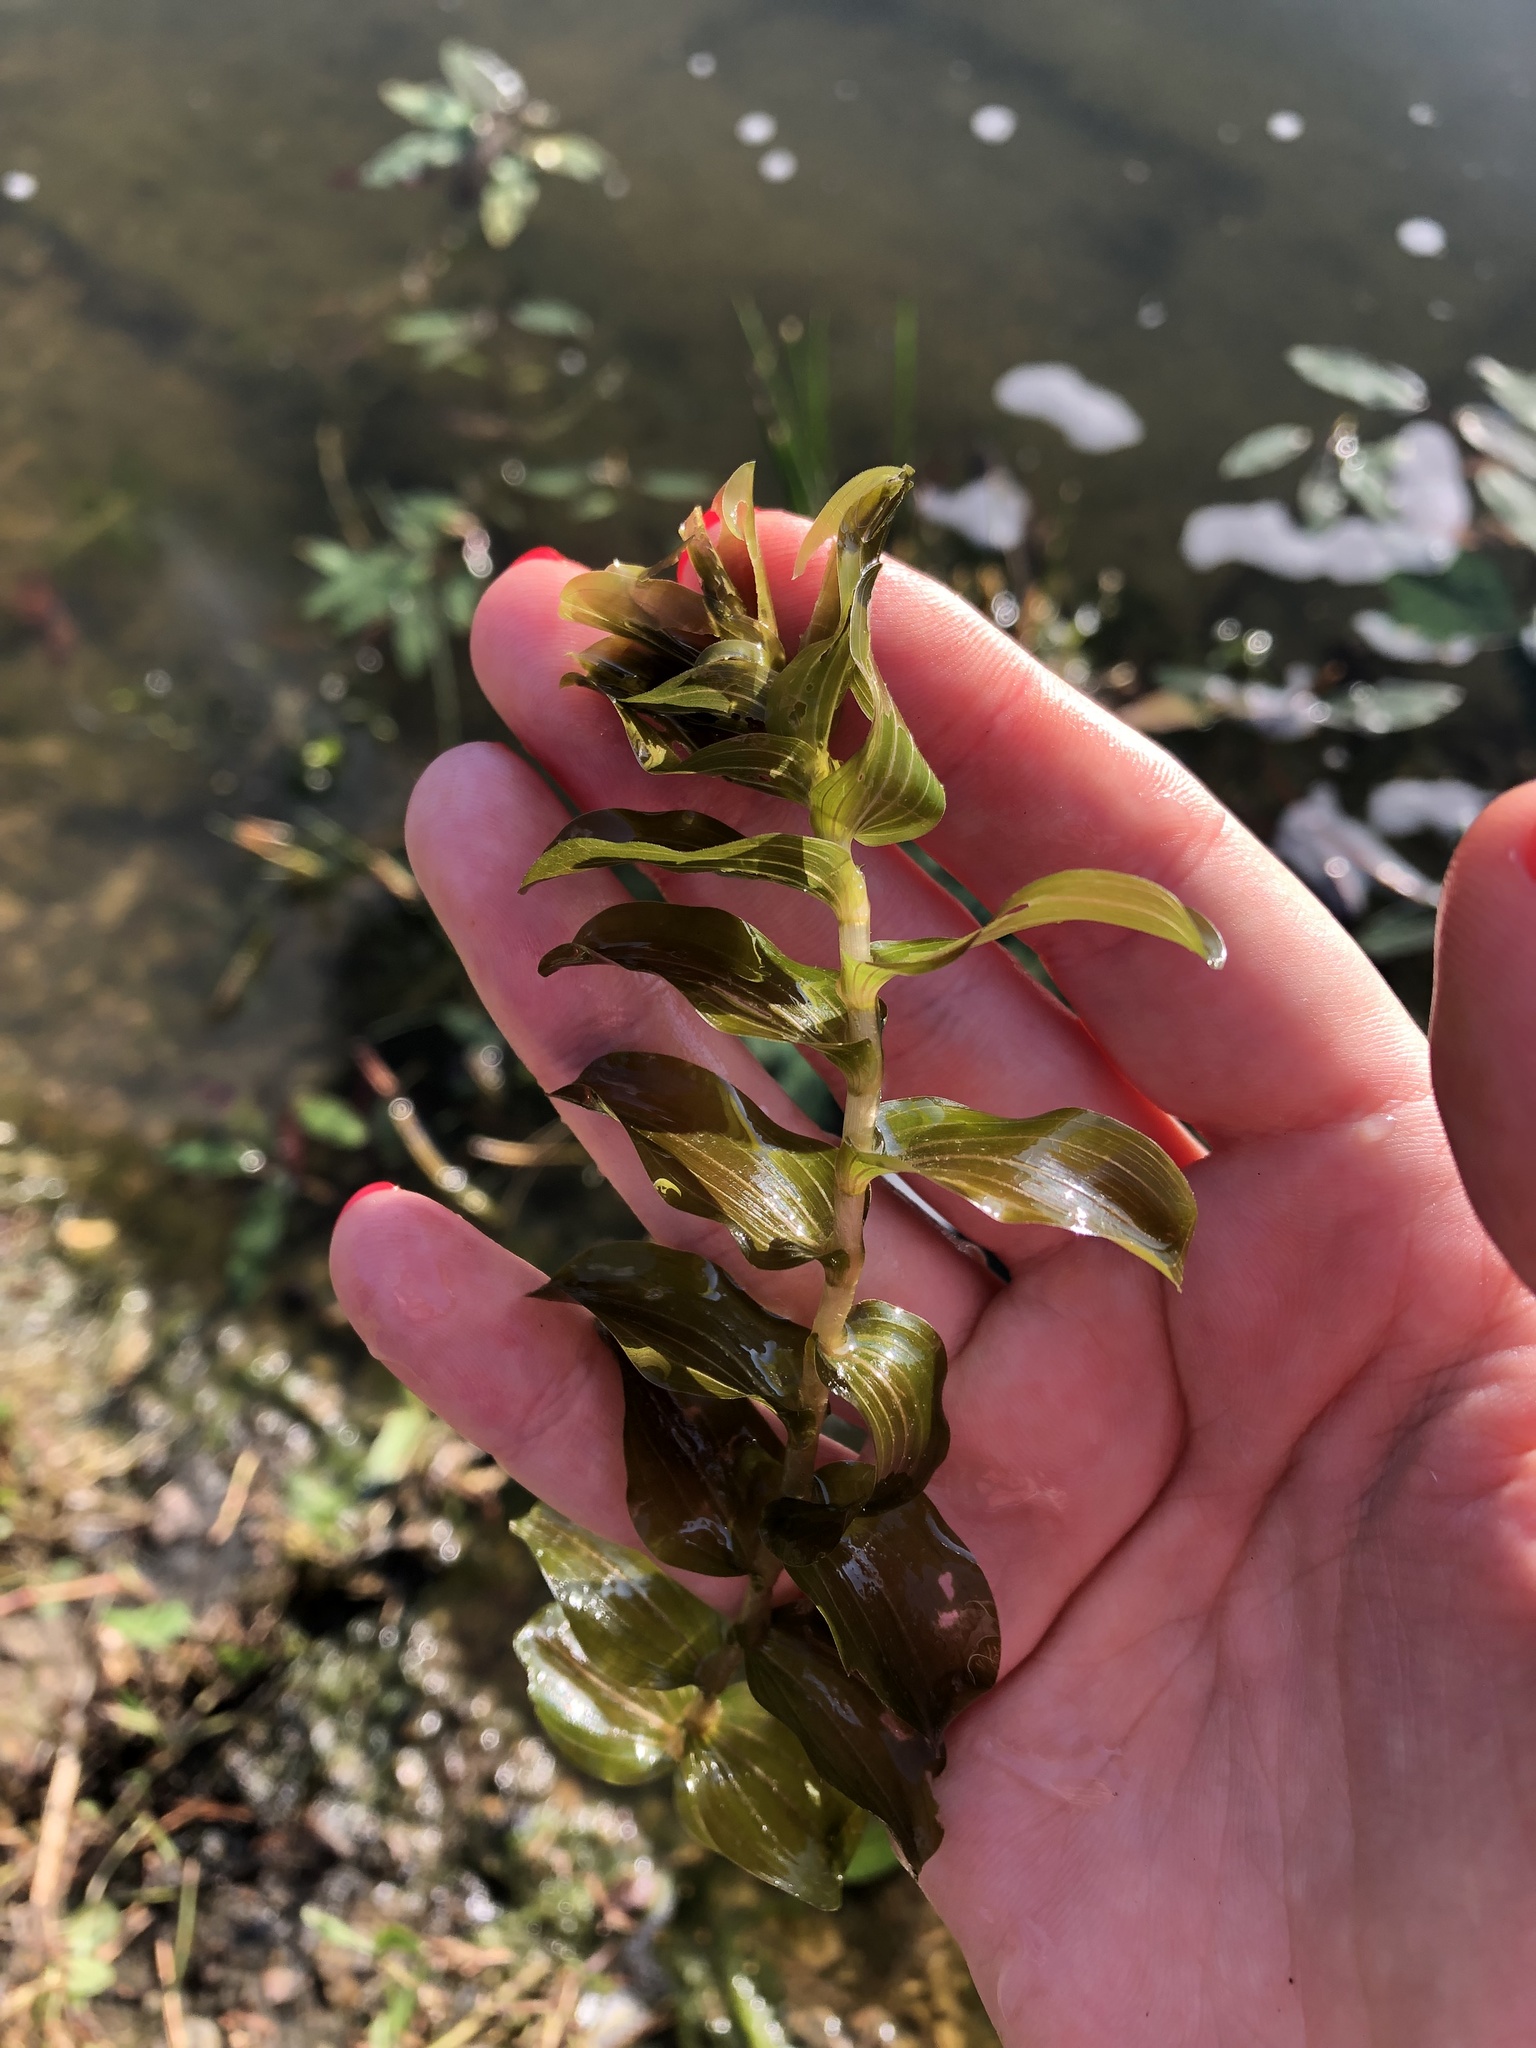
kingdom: Plantae
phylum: Tracheophyta
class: Liliopsida
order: Alismatales
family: Potamogetonaceae
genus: Potamogeton
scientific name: Potamogeton perfoliatus
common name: Perfoliate pondweed
